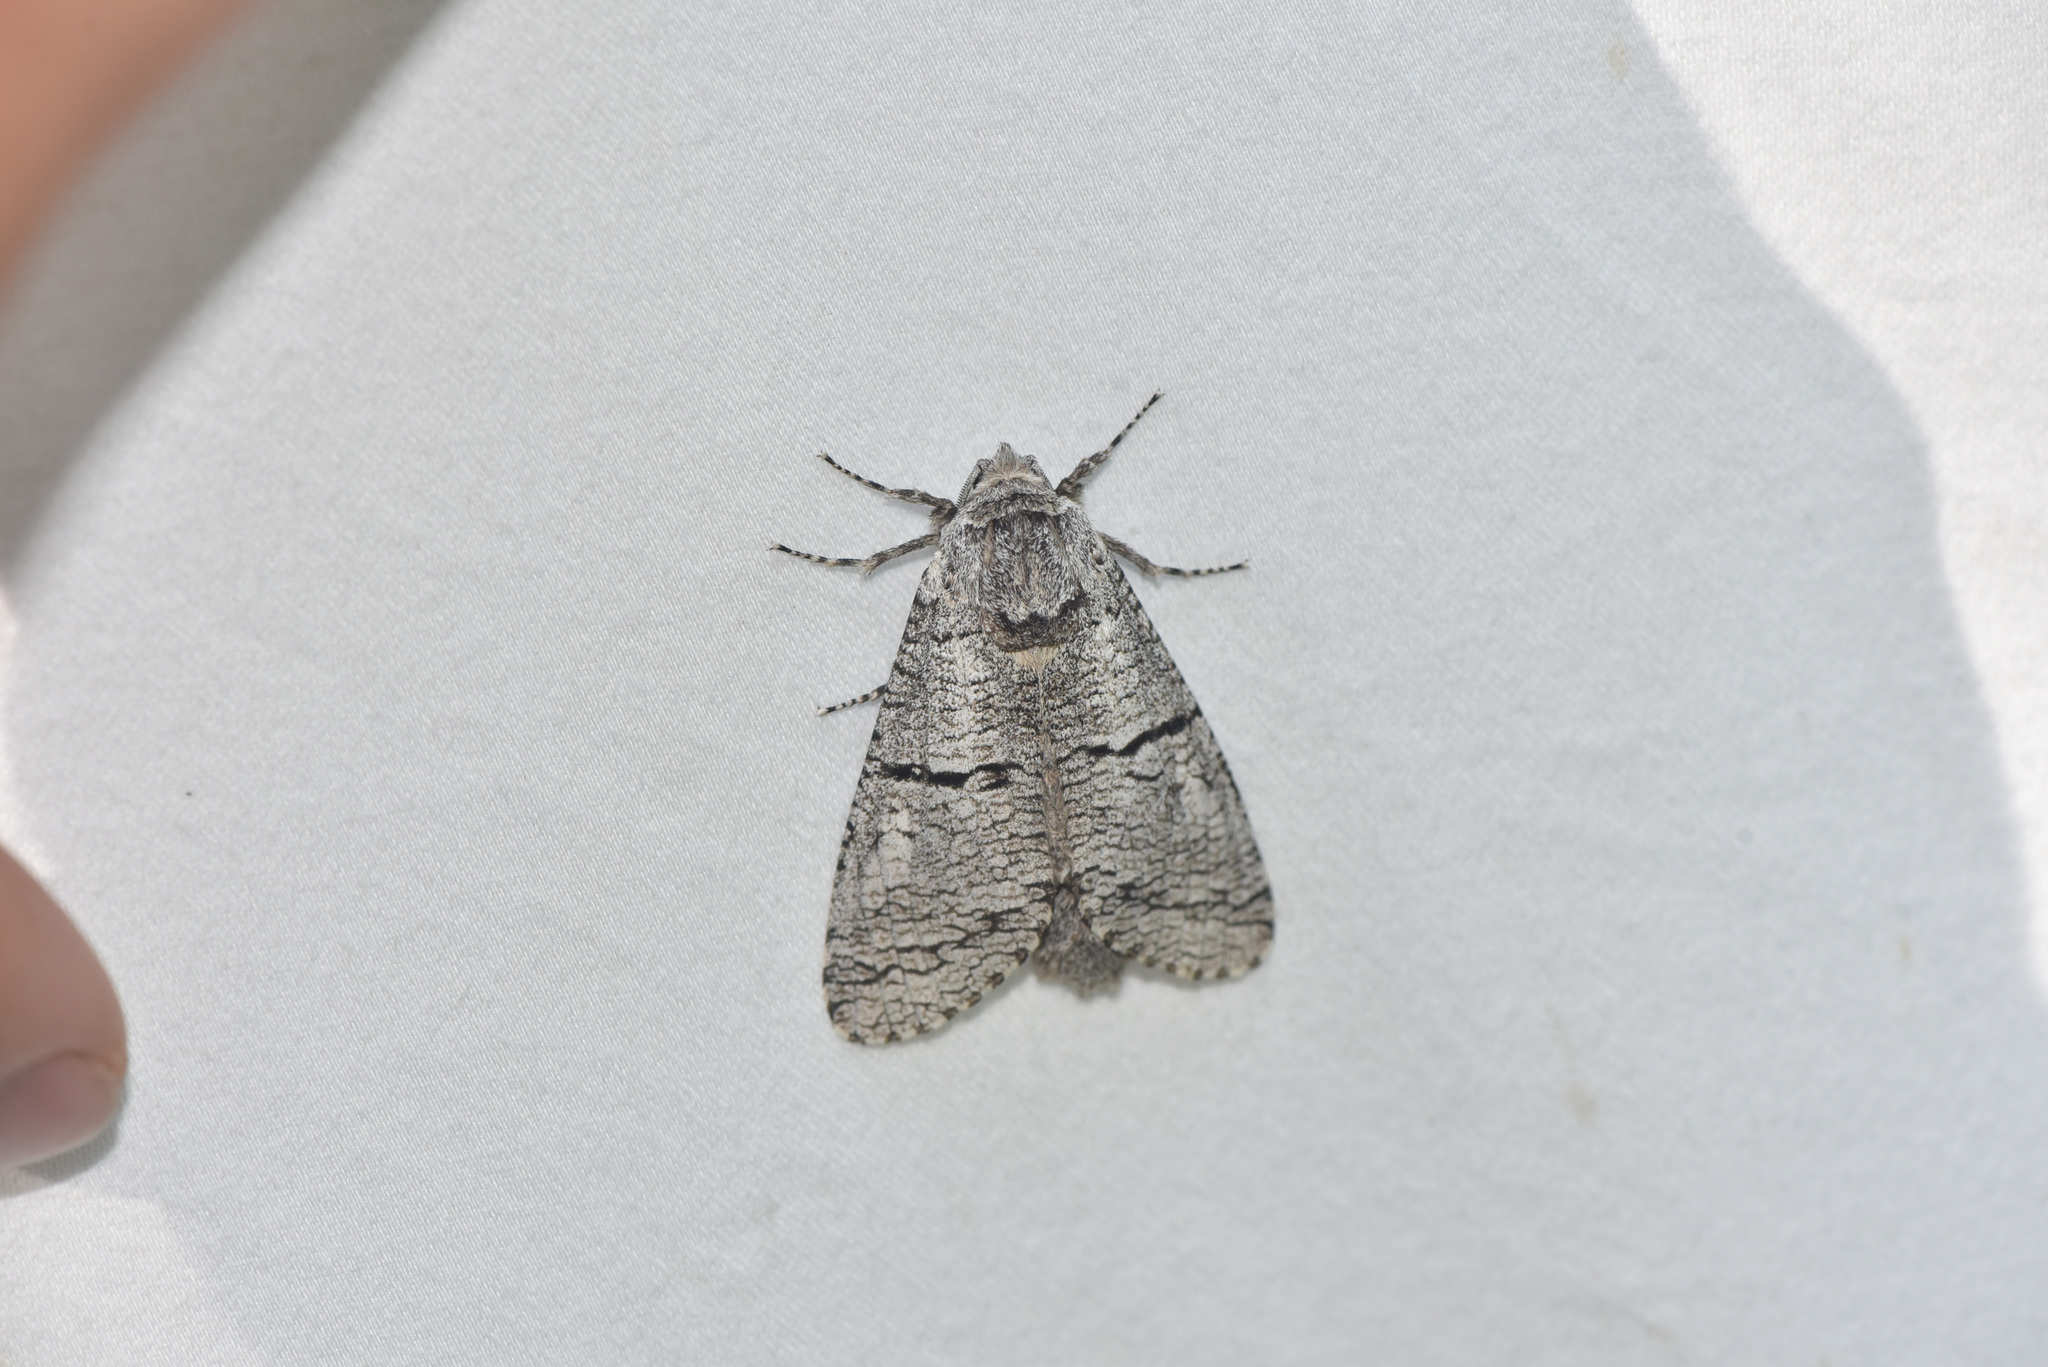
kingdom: Animalia
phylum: Arthropoda
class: Insecta
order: Lepidoptera
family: Cossidae
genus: Acossus
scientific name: Acossus populi
